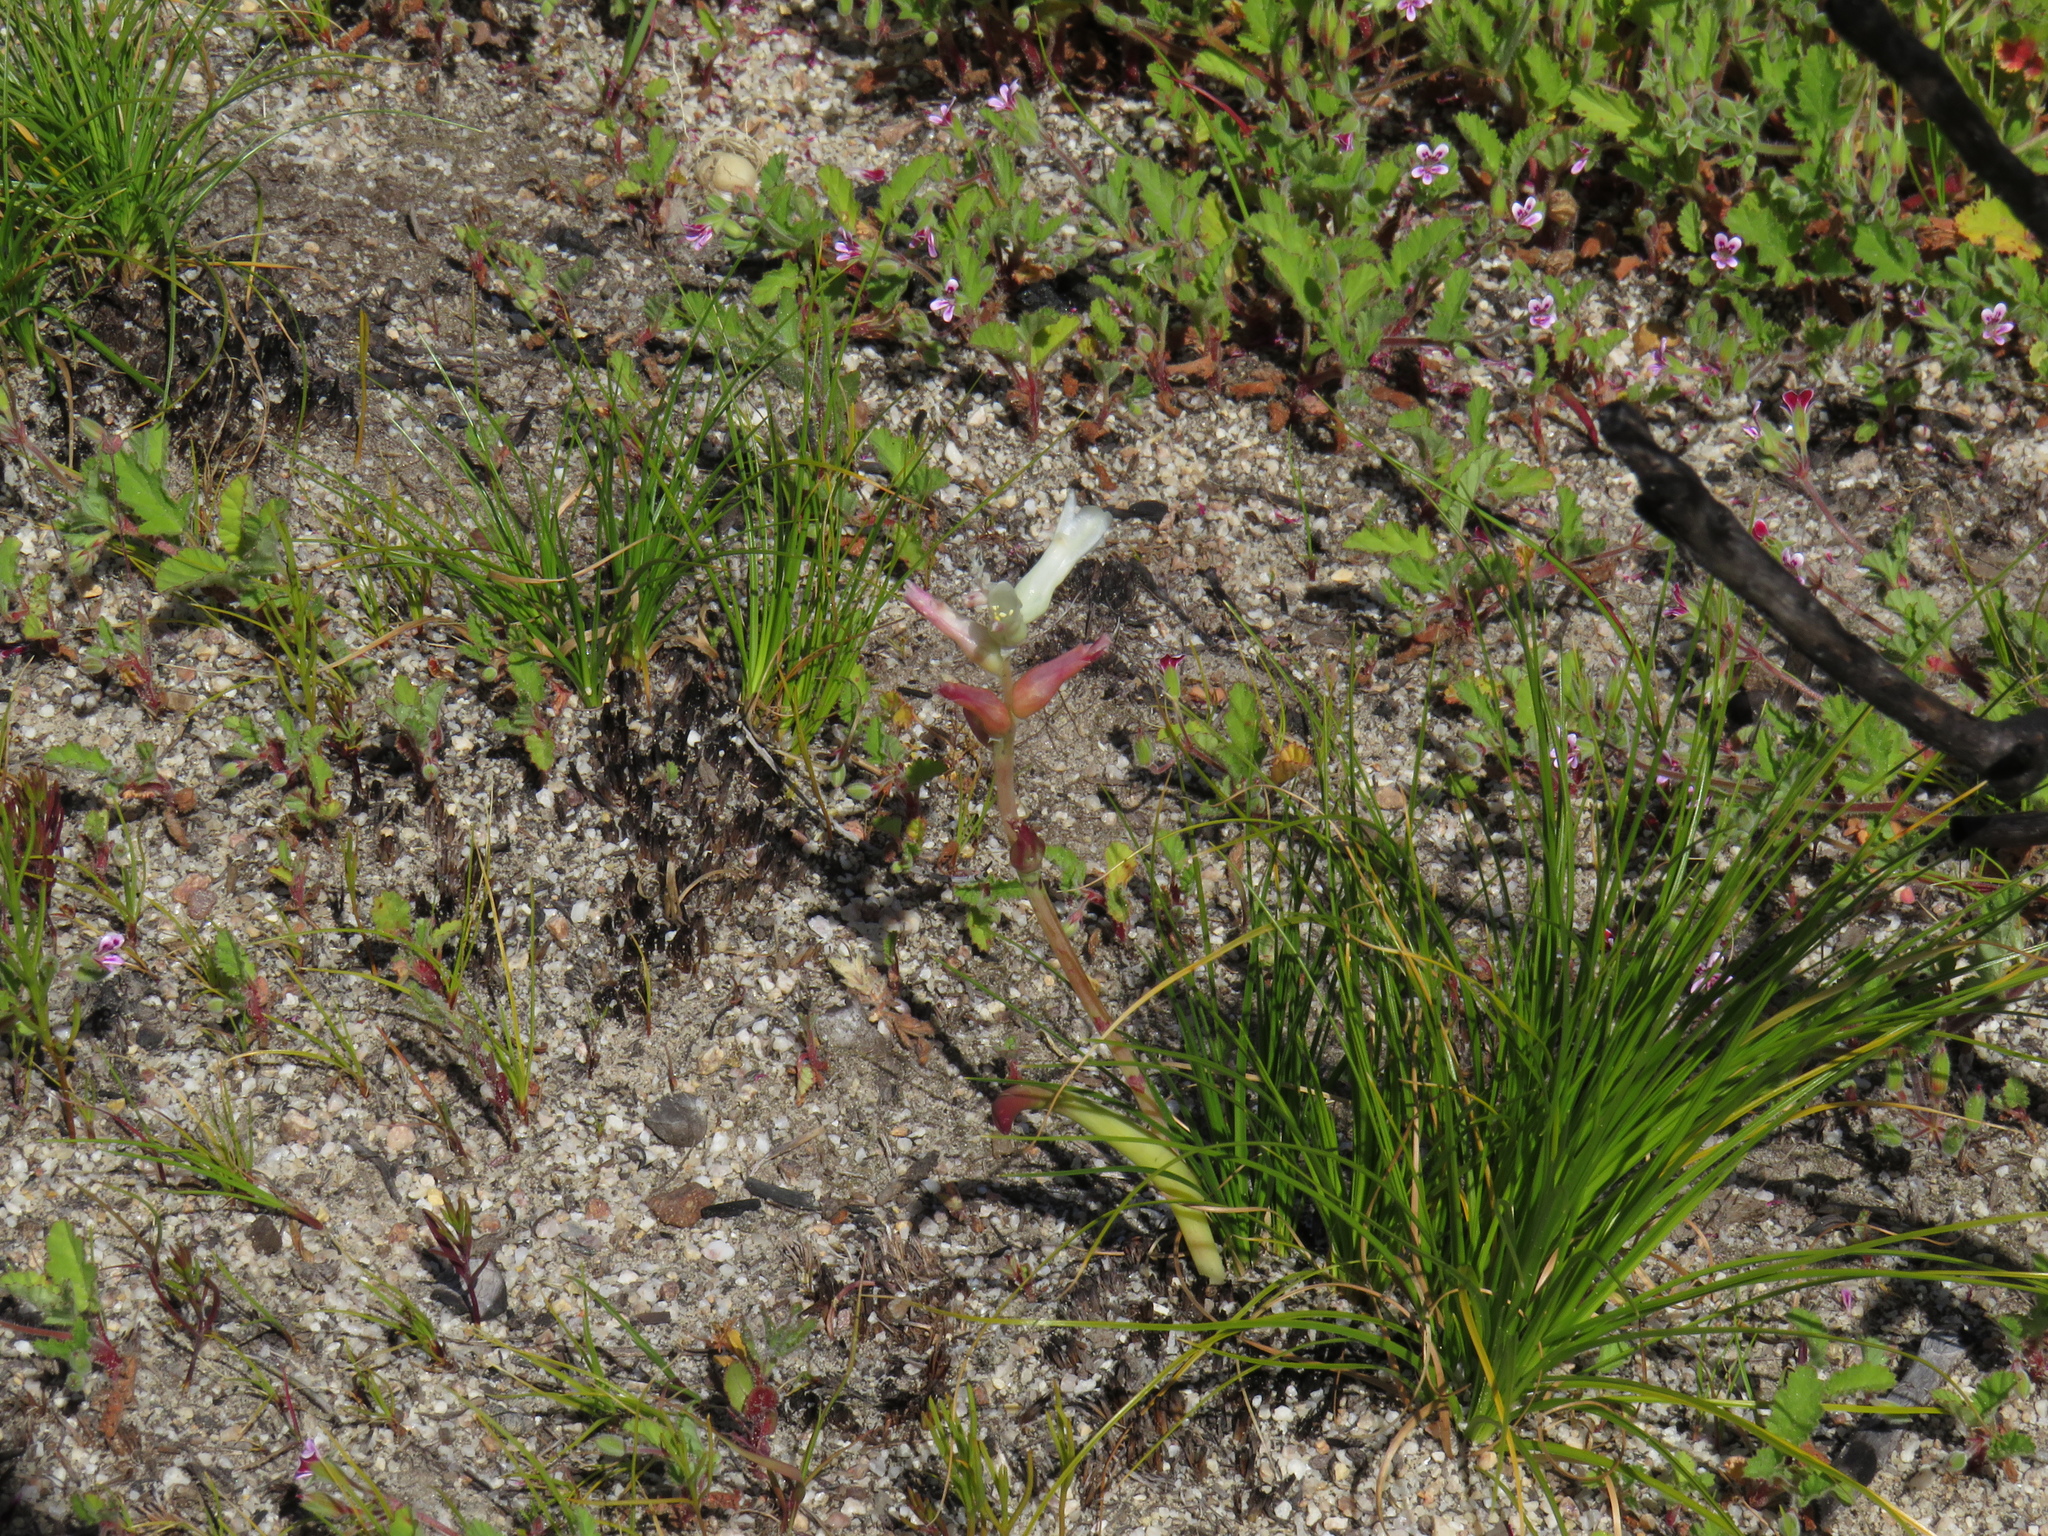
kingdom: Plantae
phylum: Tracheophyta
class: Liliopsida
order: Asparagales
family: Asparagaceae
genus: Lachenalia
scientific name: Lachenalia orchioides
